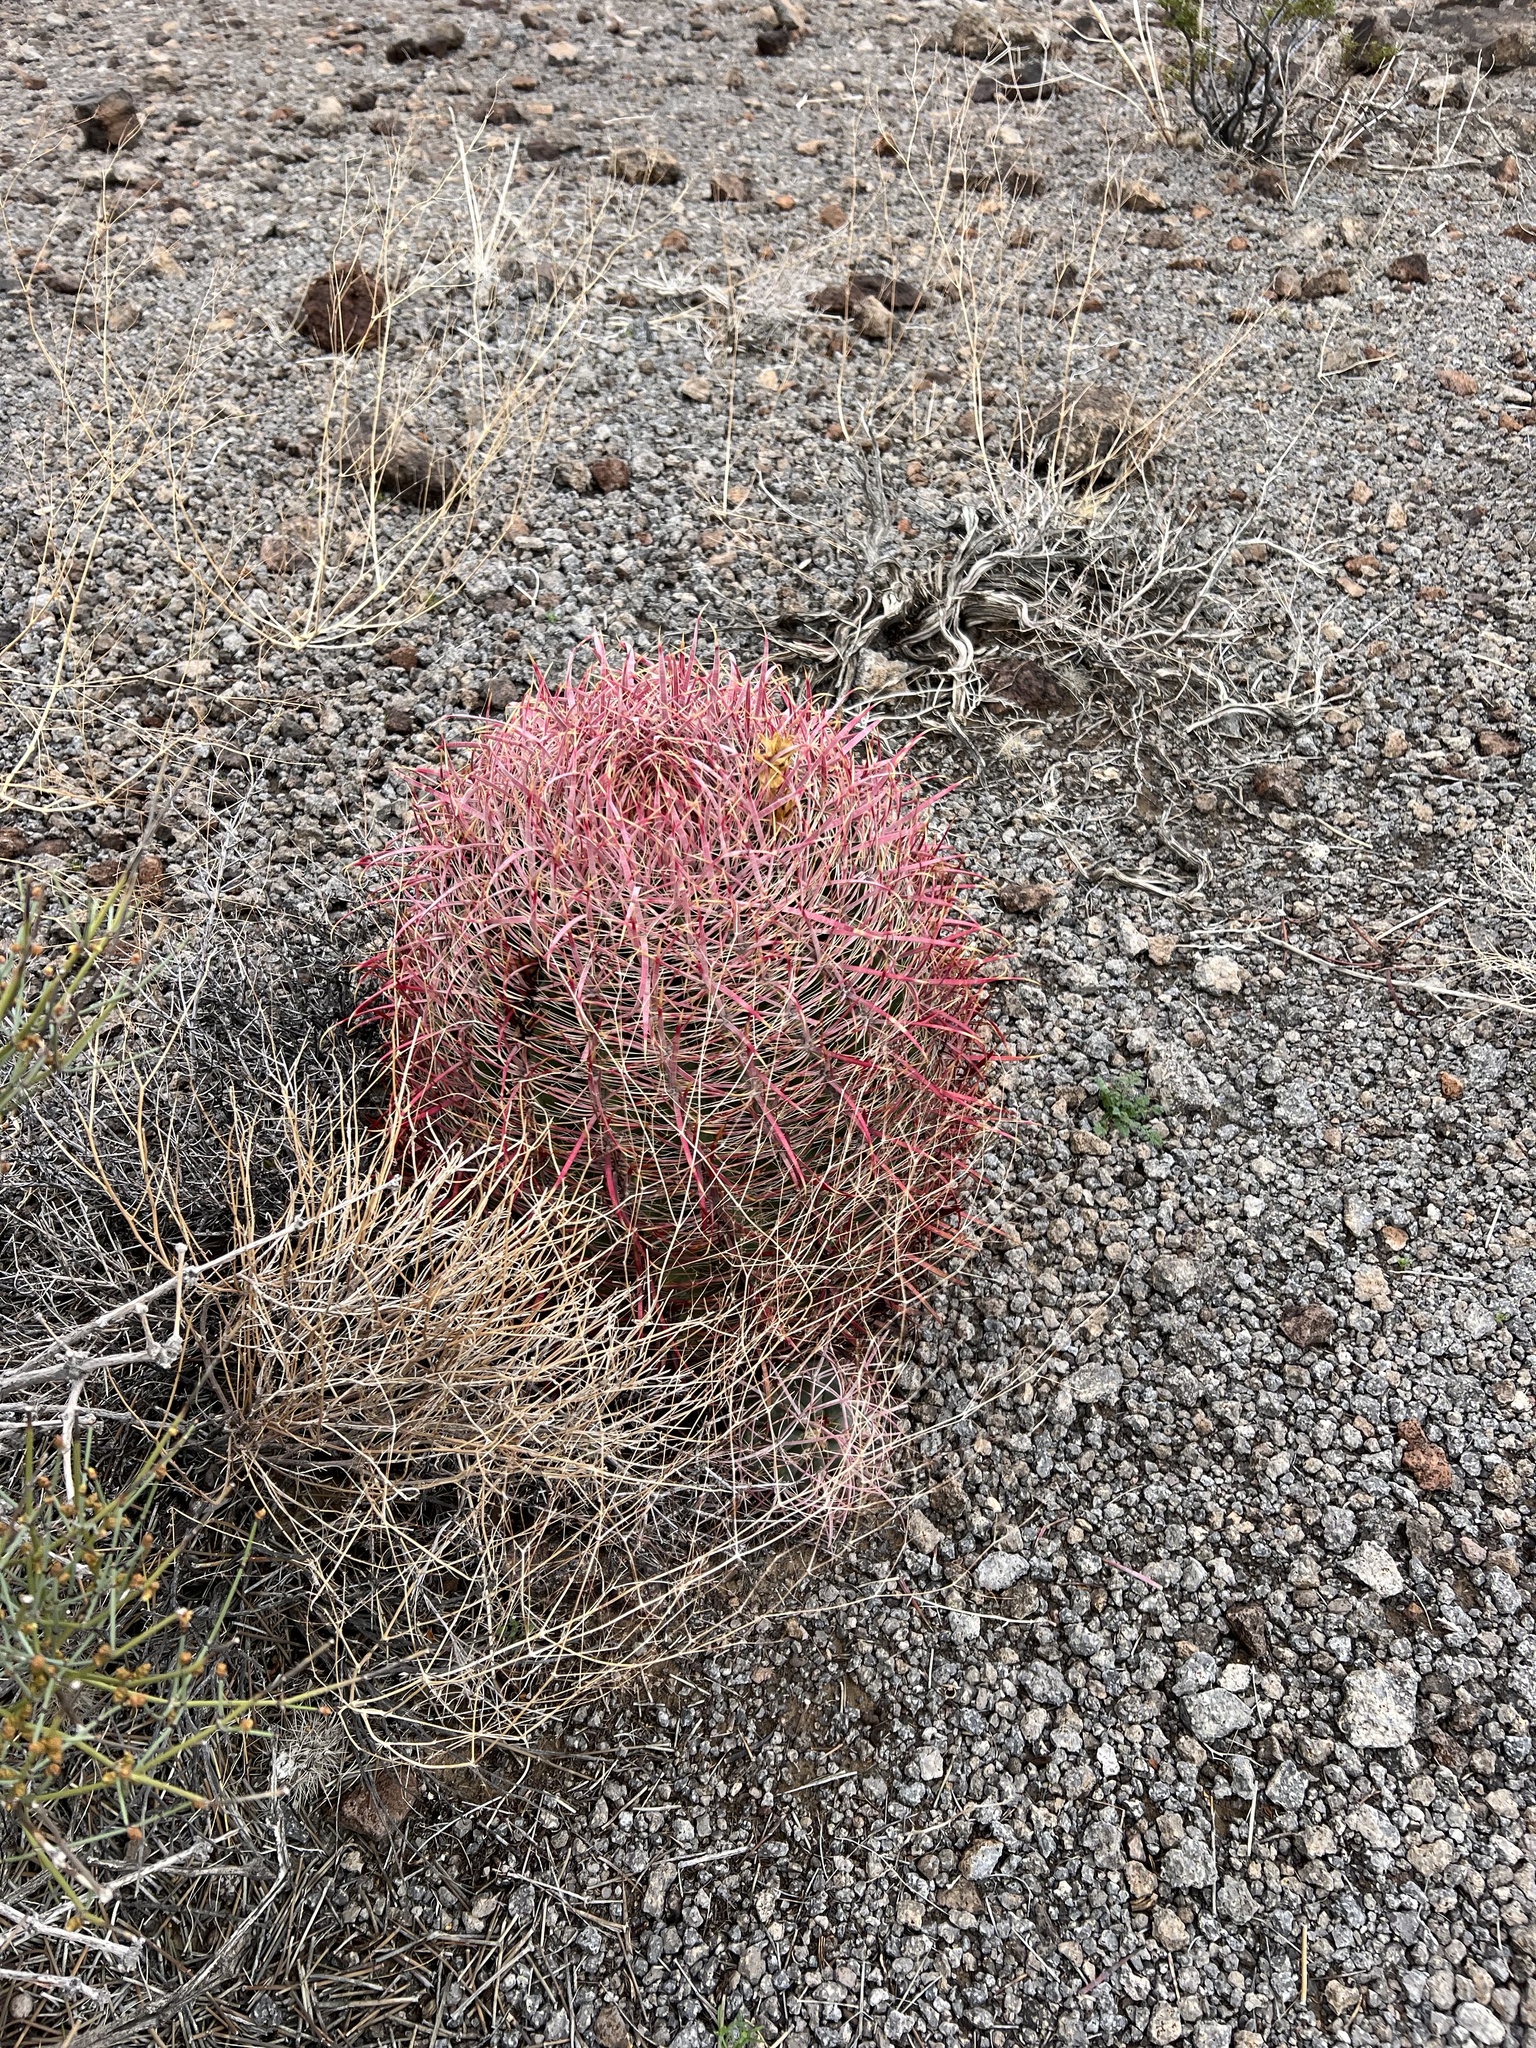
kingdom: Plantae
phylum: Tracheophyta
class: Magnoliopsida
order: Caryophyllales
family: Cactaceae
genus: Ferocactus
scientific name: Ferocactus cylindraceus
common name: California barrel cactus
